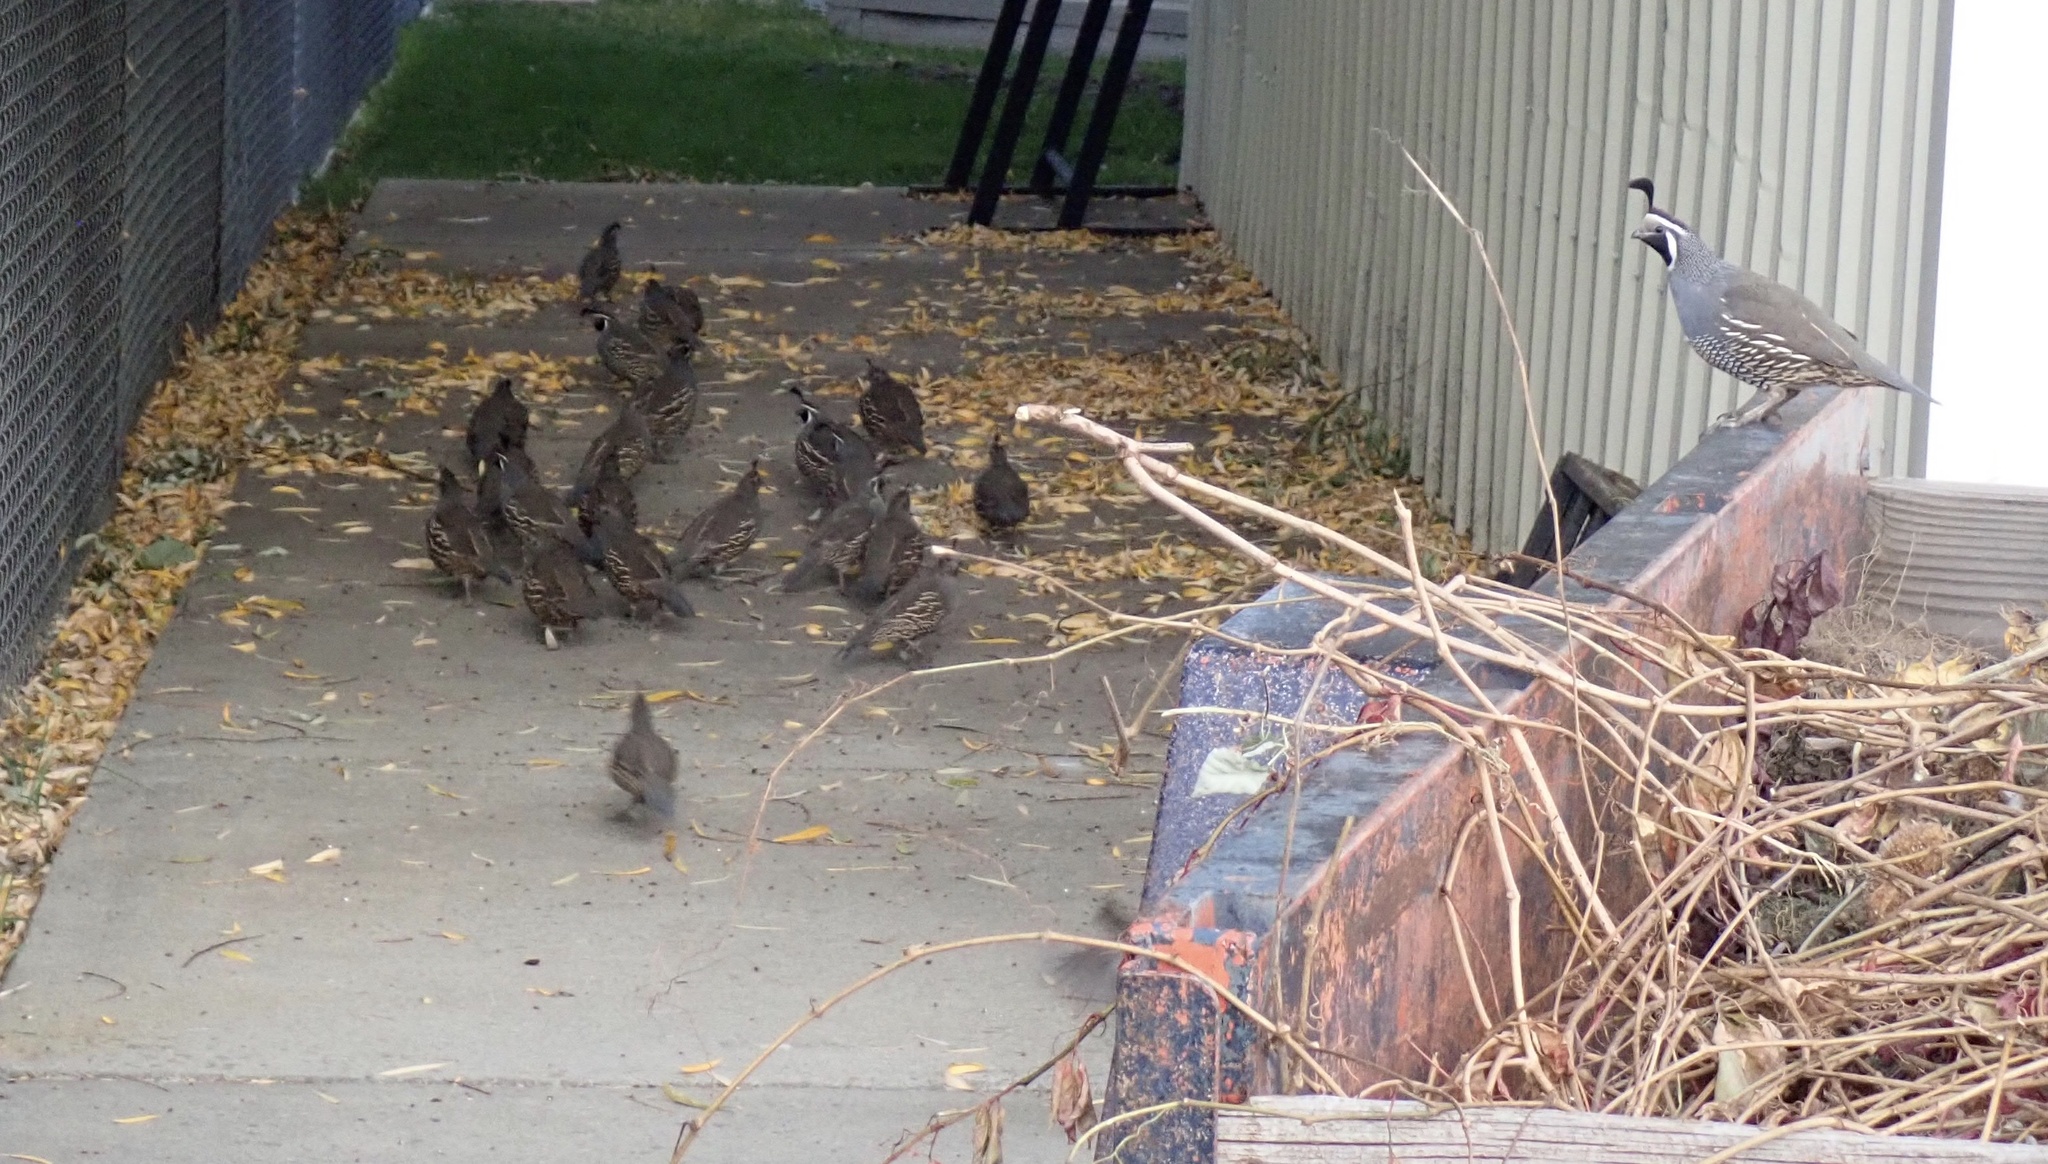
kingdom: Animalia
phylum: Chordata
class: Aves
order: Galliformes
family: Odontophoridae
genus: Callipepla
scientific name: Callipepla californica
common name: California quail
